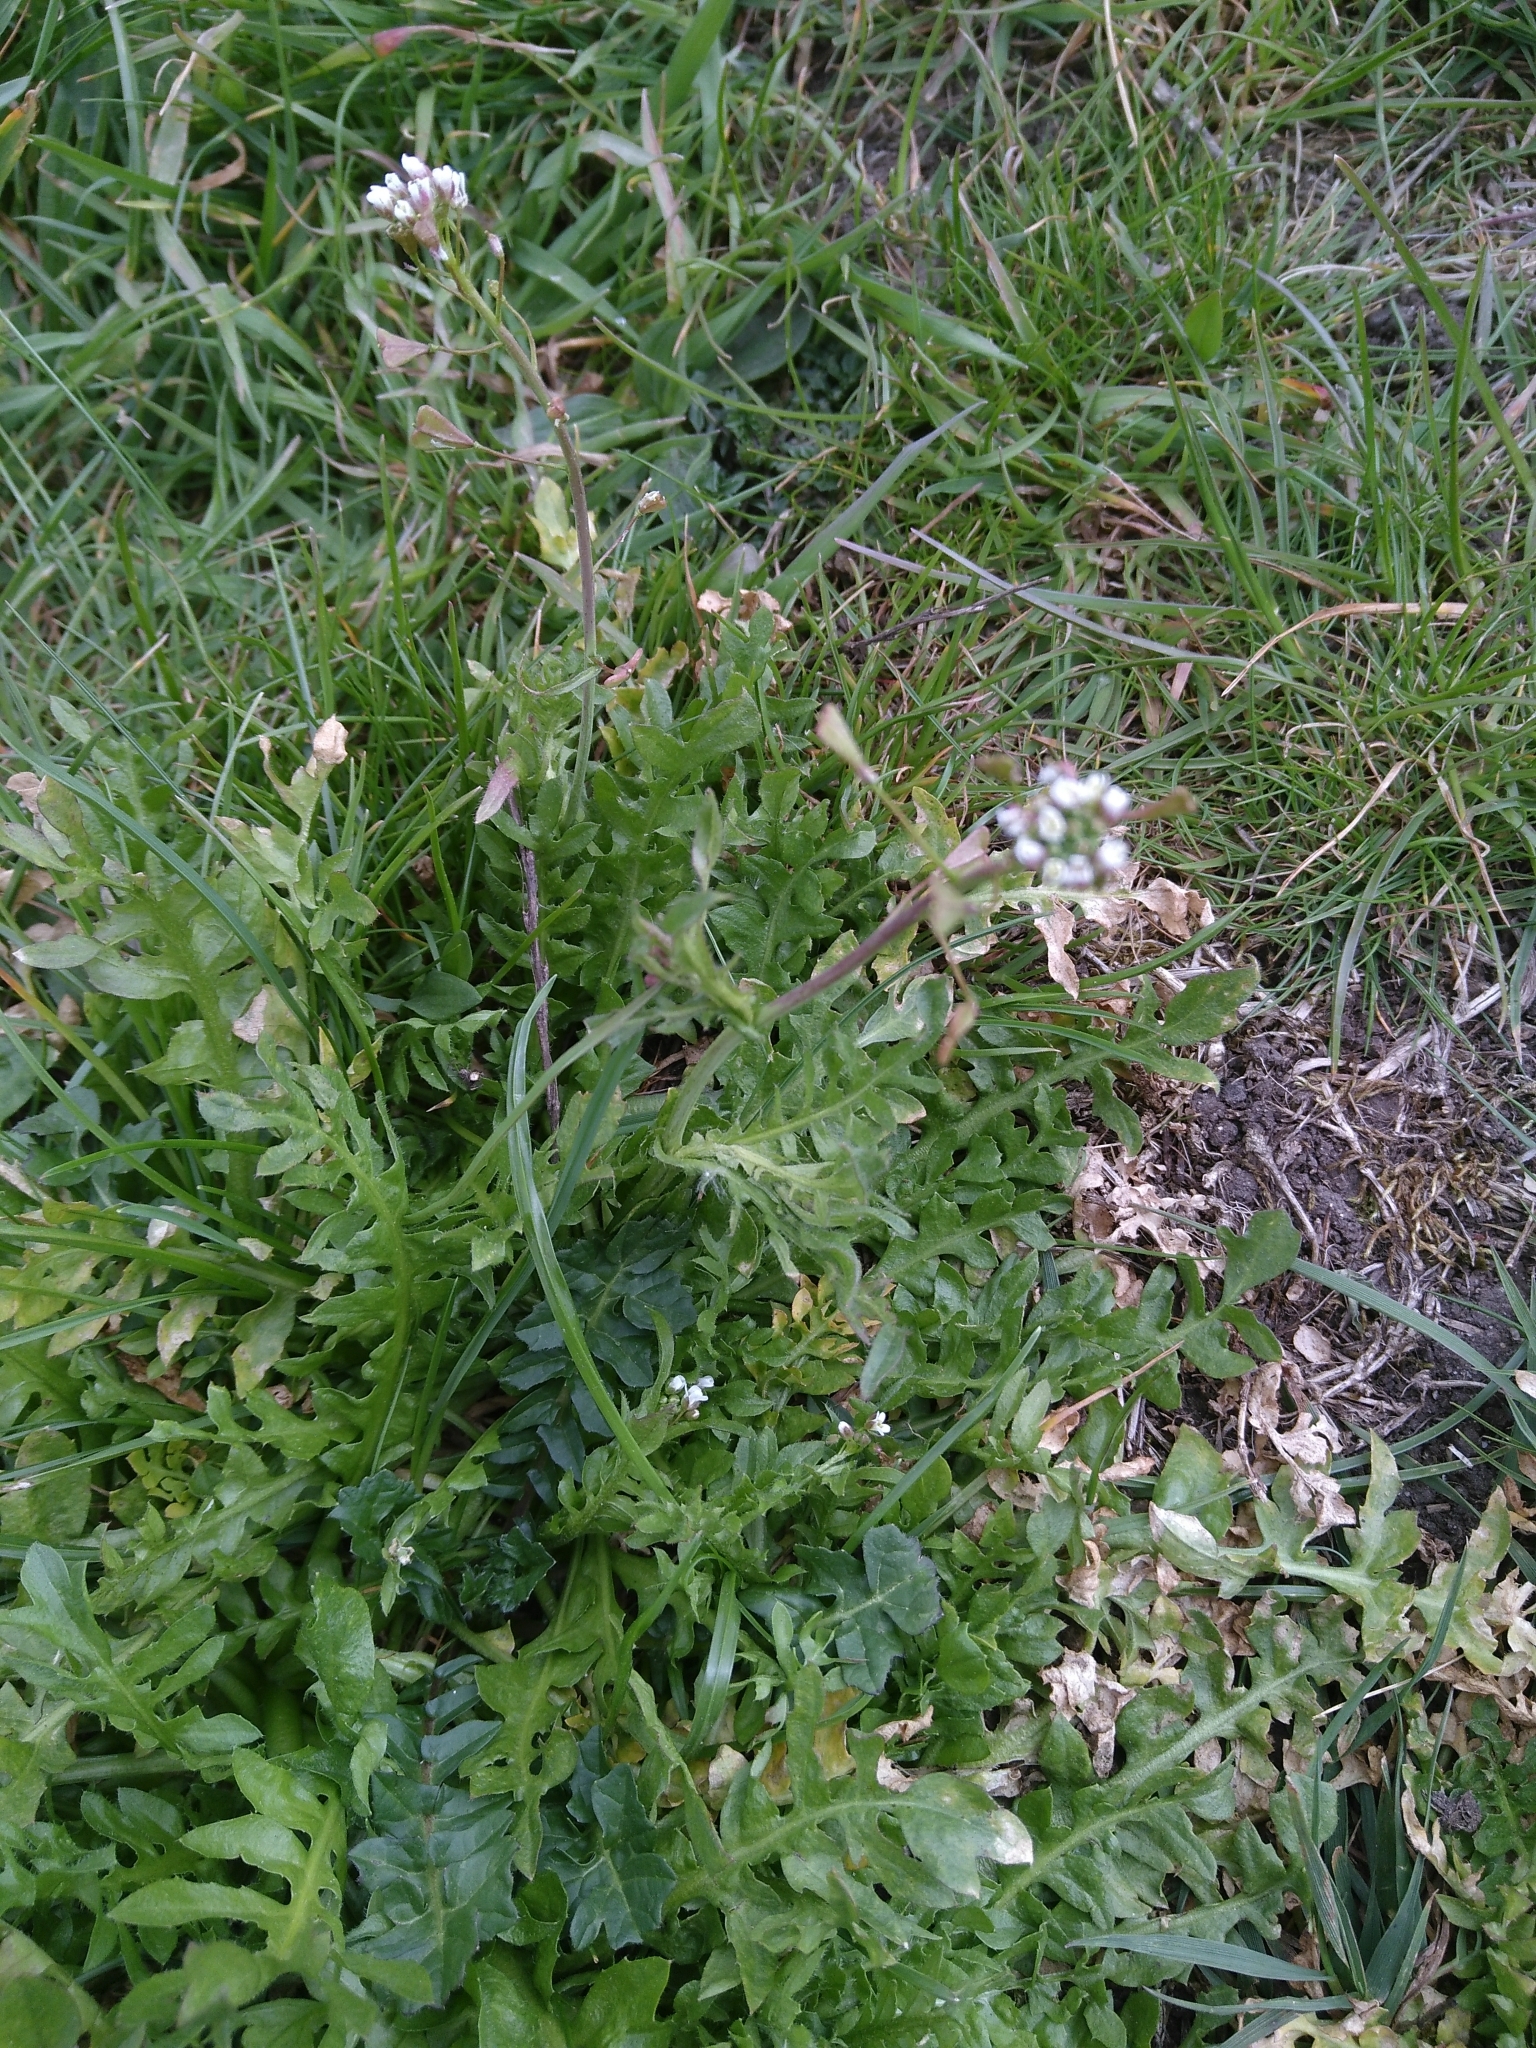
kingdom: Plantae
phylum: Tracheophyta
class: Magnoliopsida
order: Brassicales
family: Brassicaceae
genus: Capsella
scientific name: Capsella bursa-pastoris
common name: Shepherd's purse
